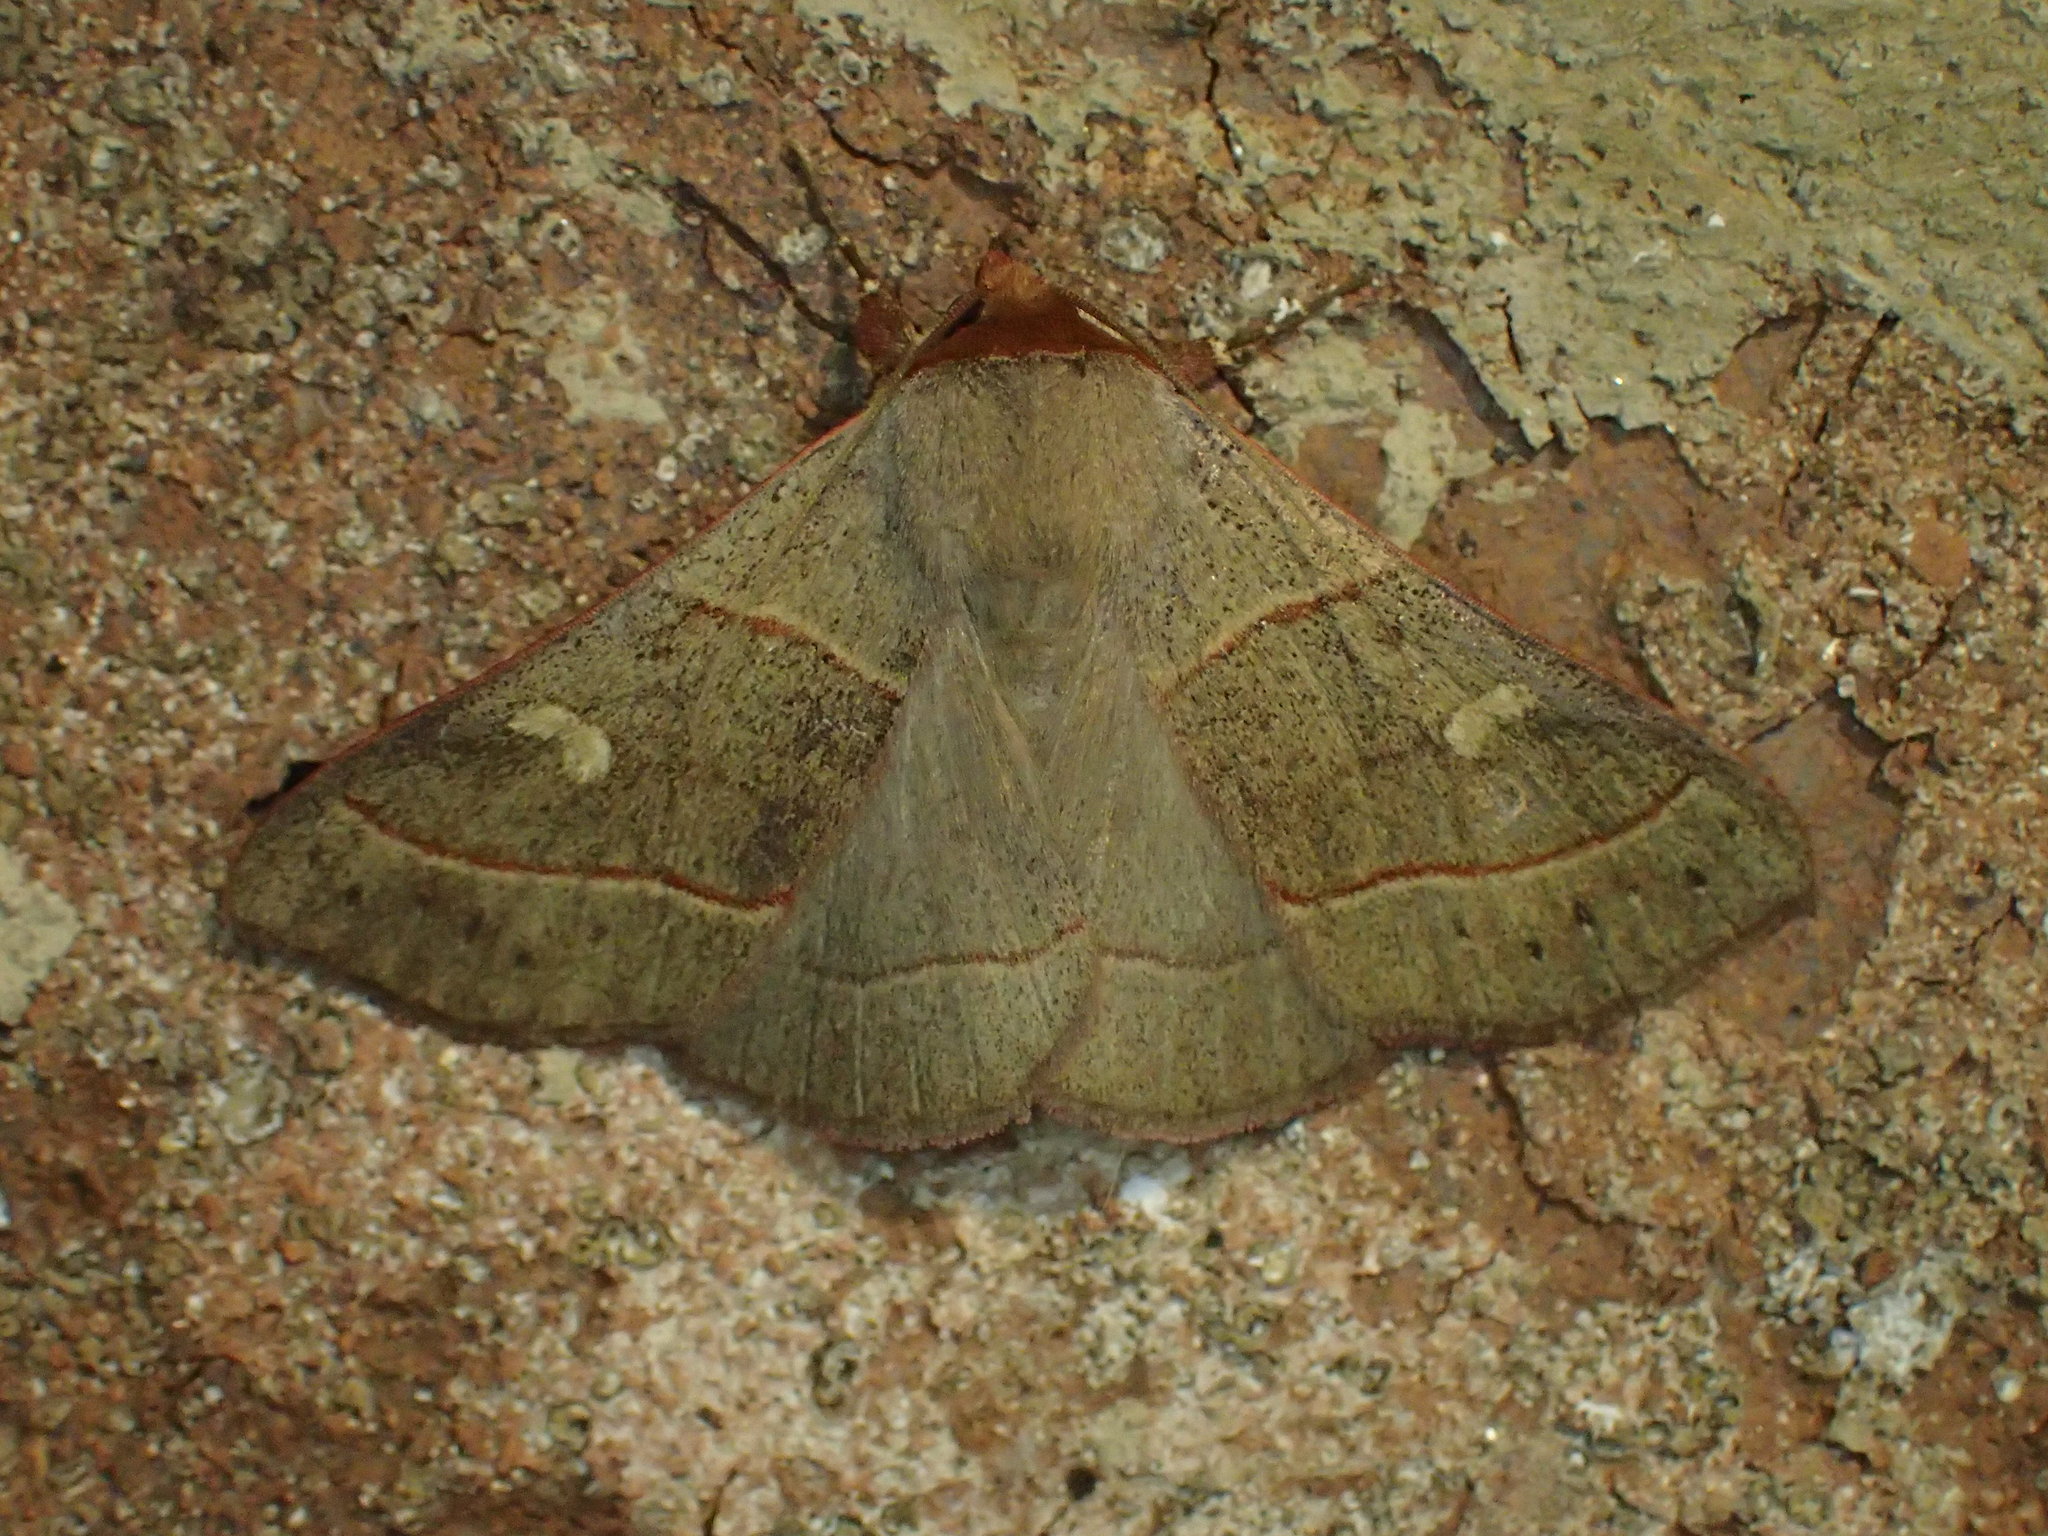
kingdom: Animalia
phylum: Arthropoda
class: Insecta
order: Lepidoptera
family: Erebidae
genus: Panopoda
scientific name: Panopoda rufimargo
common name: Red-lined panopoda moth
